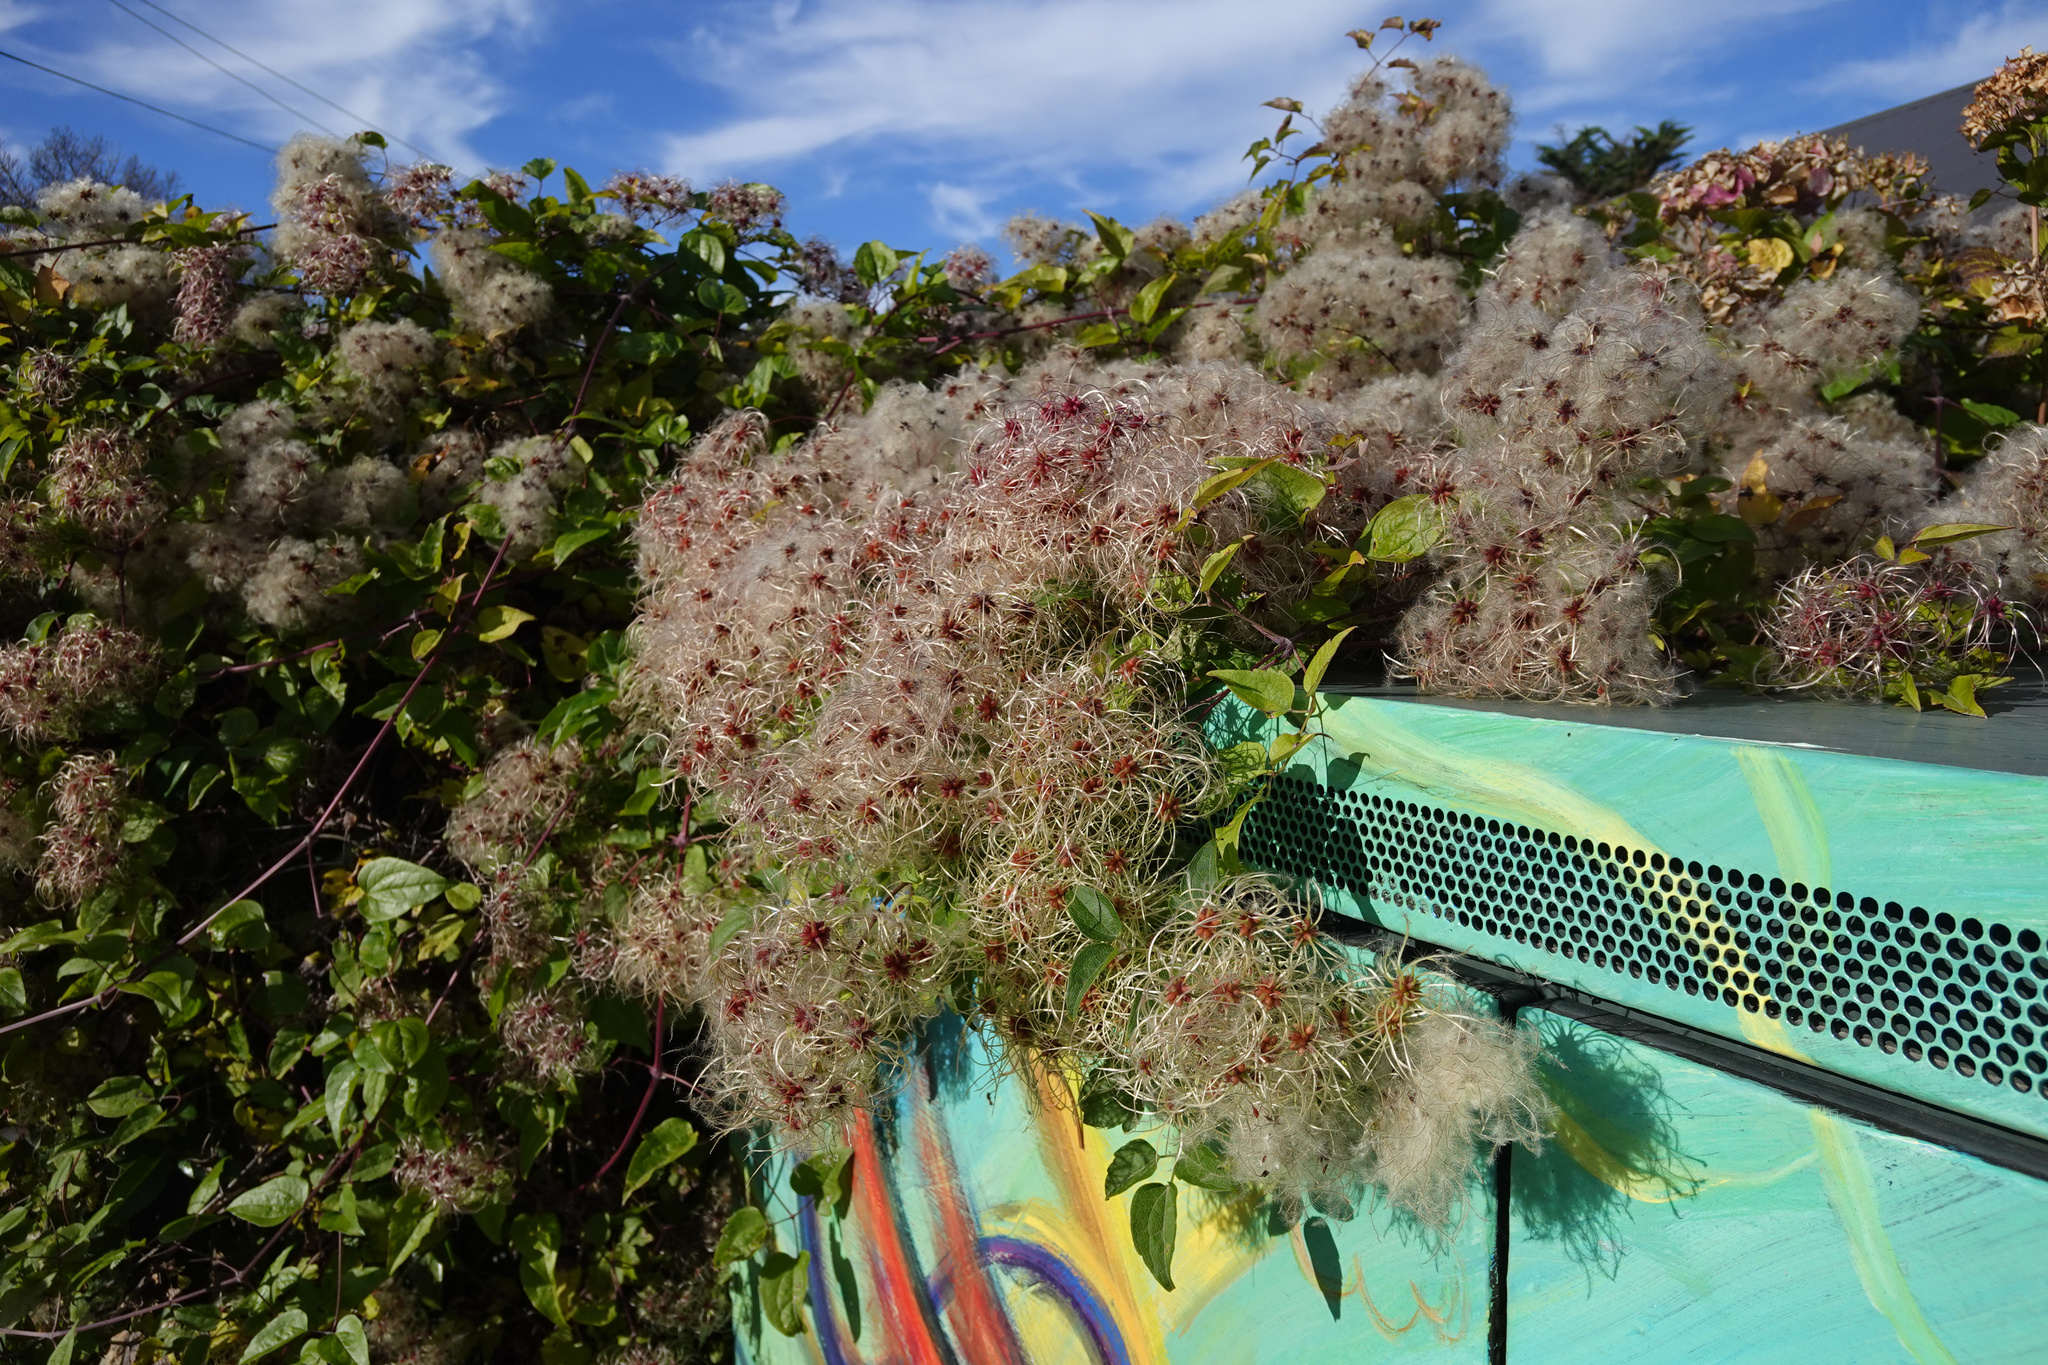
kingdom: Plantae
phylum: Tracheophyta
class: Magnoliopsida
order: Ranunculales
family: Ranunculaceae
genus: Clematis
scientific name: Clematis vitalba
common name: Evergreen clematis
